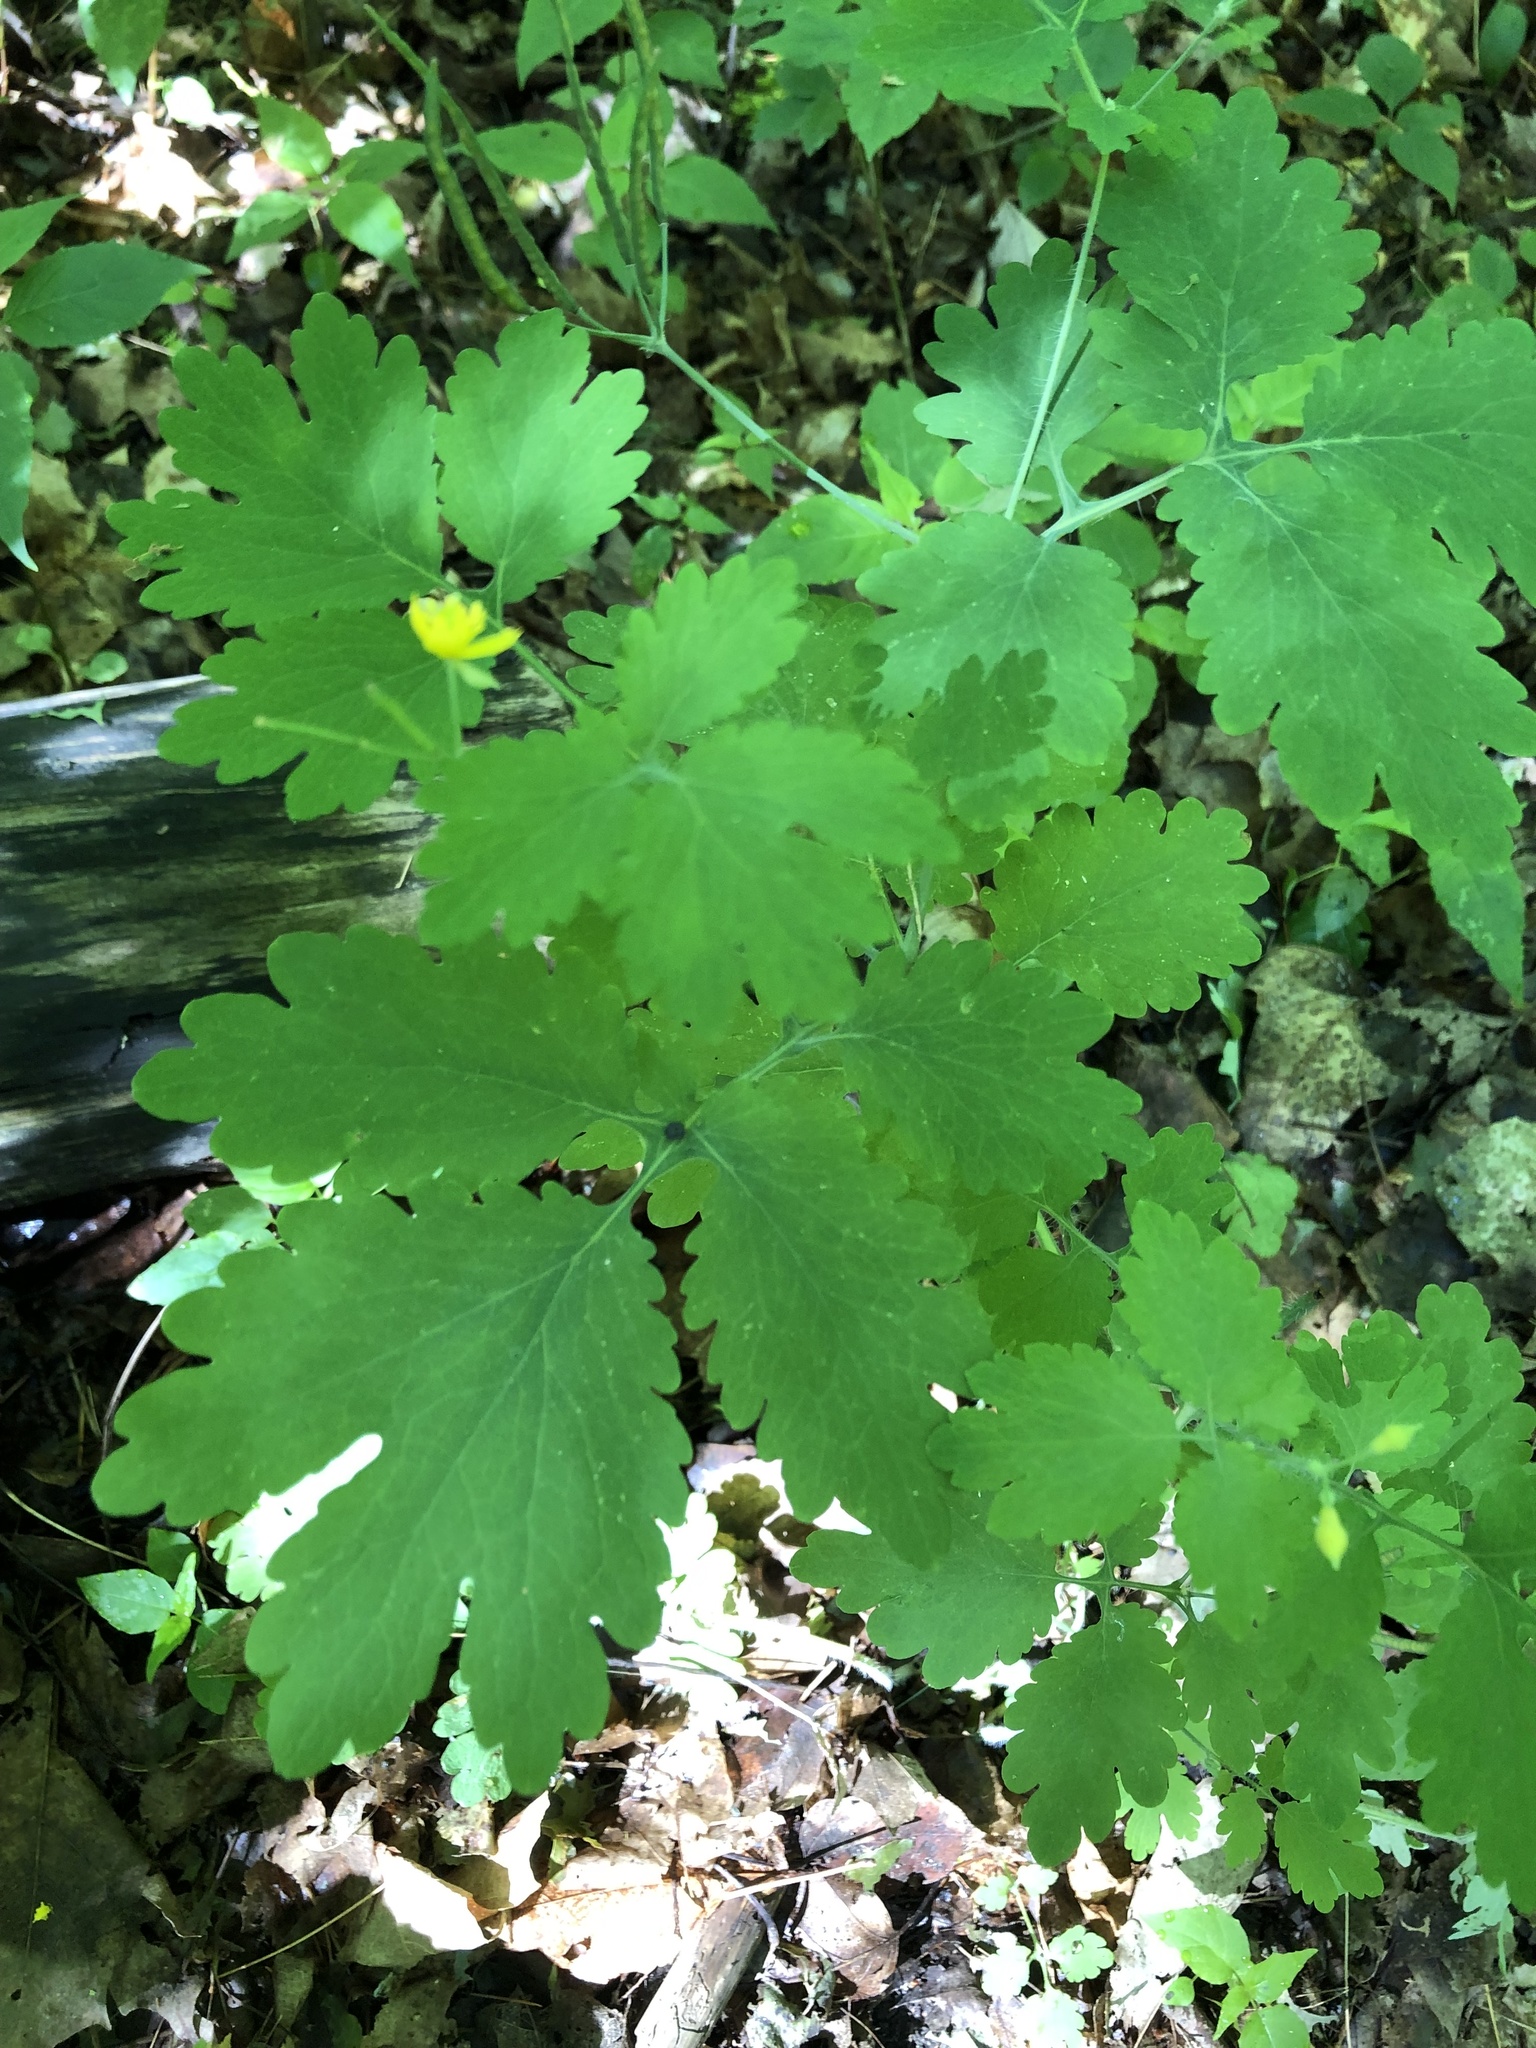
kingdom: Plantae
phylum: Tracheophyta
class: Magnoliopsida
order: Ranunculales
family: Papaveraceae
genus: Chelidonium
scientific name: Chelidonium majus
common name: Greater celandine
